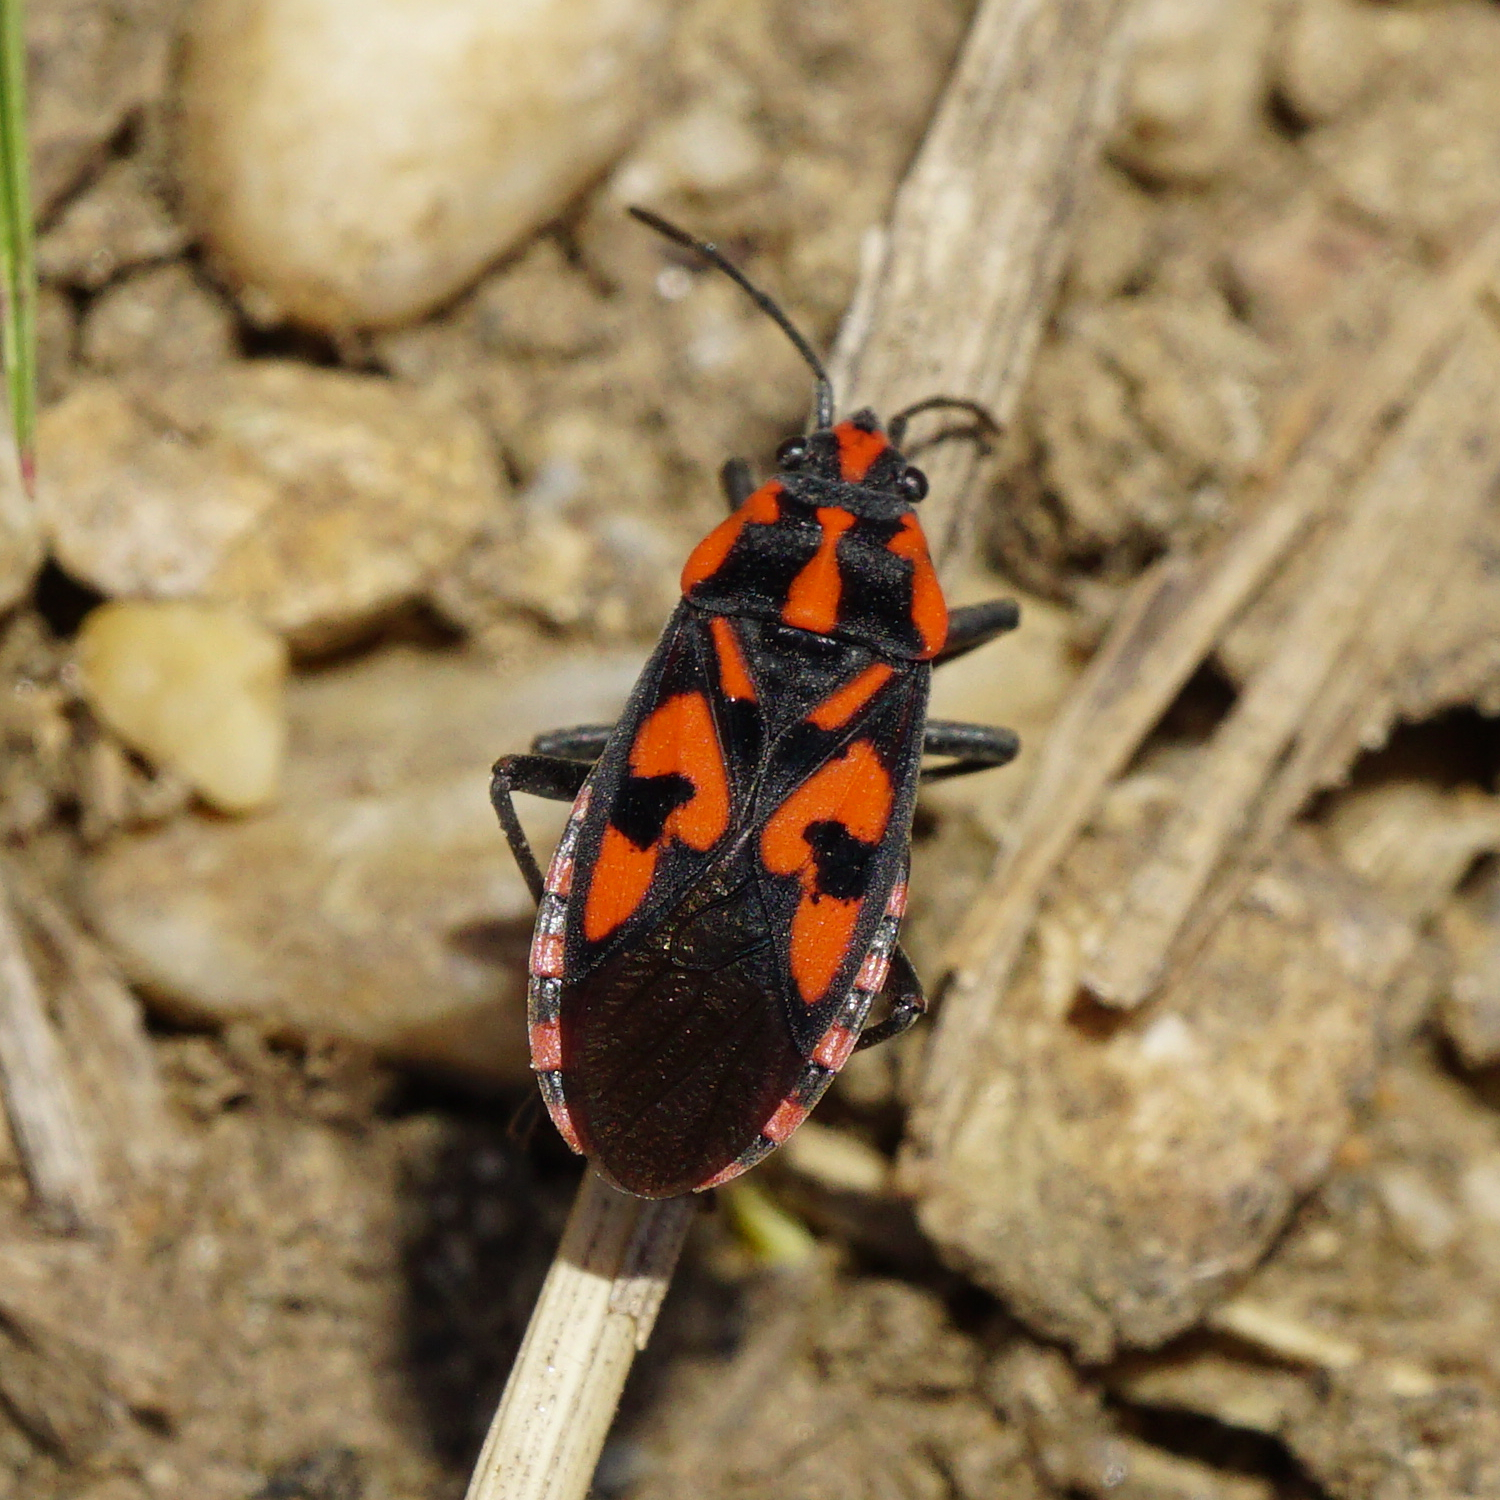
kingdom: Animalia
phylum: Arthropoda
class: Insecta
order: Hemiptera
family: Lygaeidae
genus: Spilostethus
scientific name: Spilostethus saxatilis
